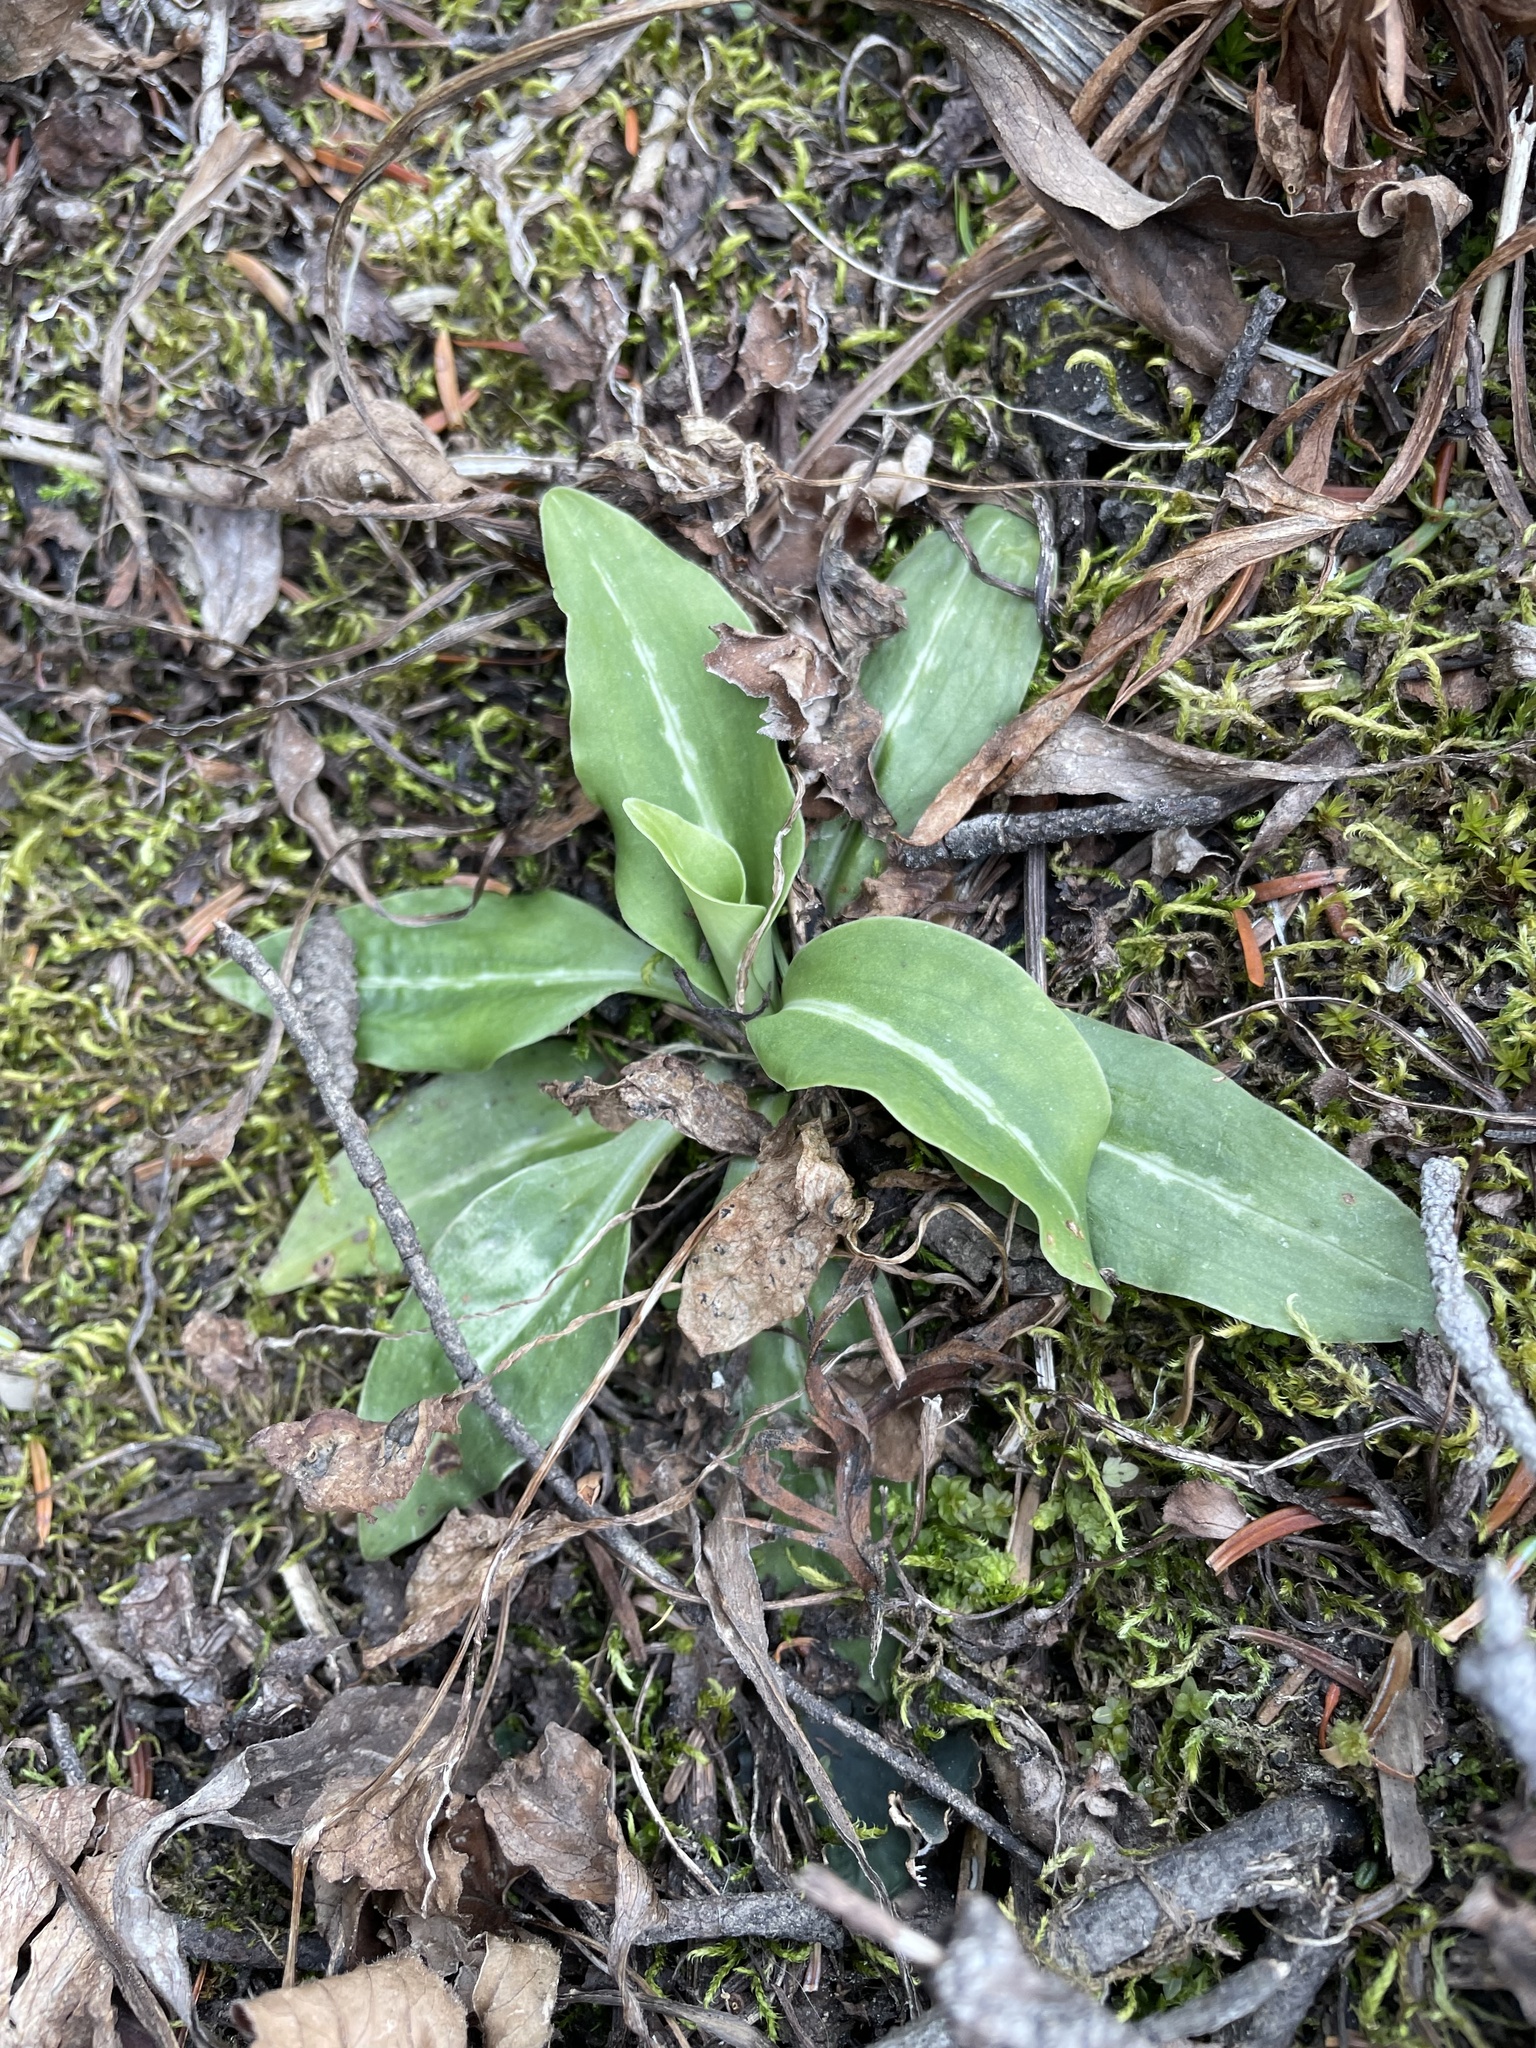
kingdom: Plantae
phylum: Tracheophyta
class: Liliopsida
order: Asparagales
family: Orchidaceae
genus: Goodyera
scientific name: Goodyera oblongifolia
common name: Giant rattlesnake-plantain
